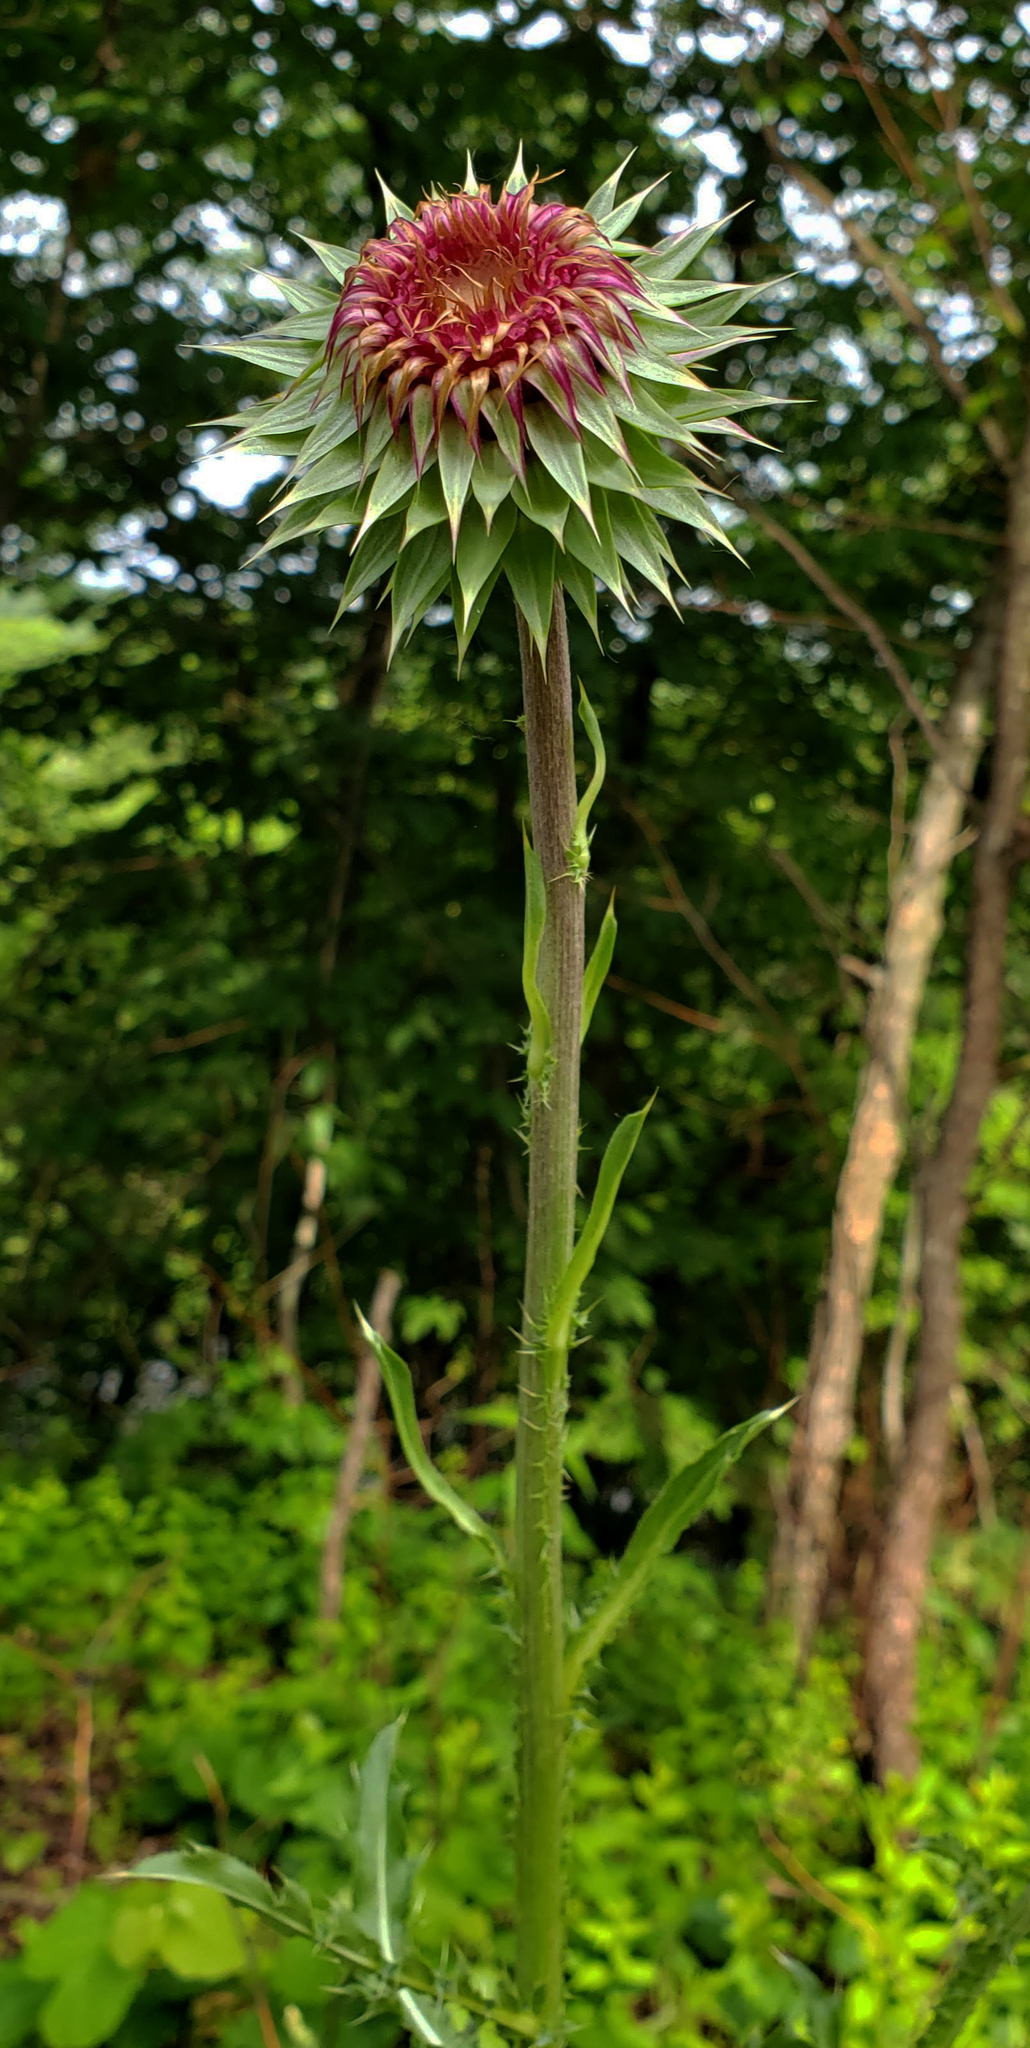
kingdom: Plantae
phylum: Tracheophyta
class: Magnoliopsida
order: Asterales
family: Asteraceae
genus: Carduus
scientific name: Carduus nutans
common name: Musk thistle
